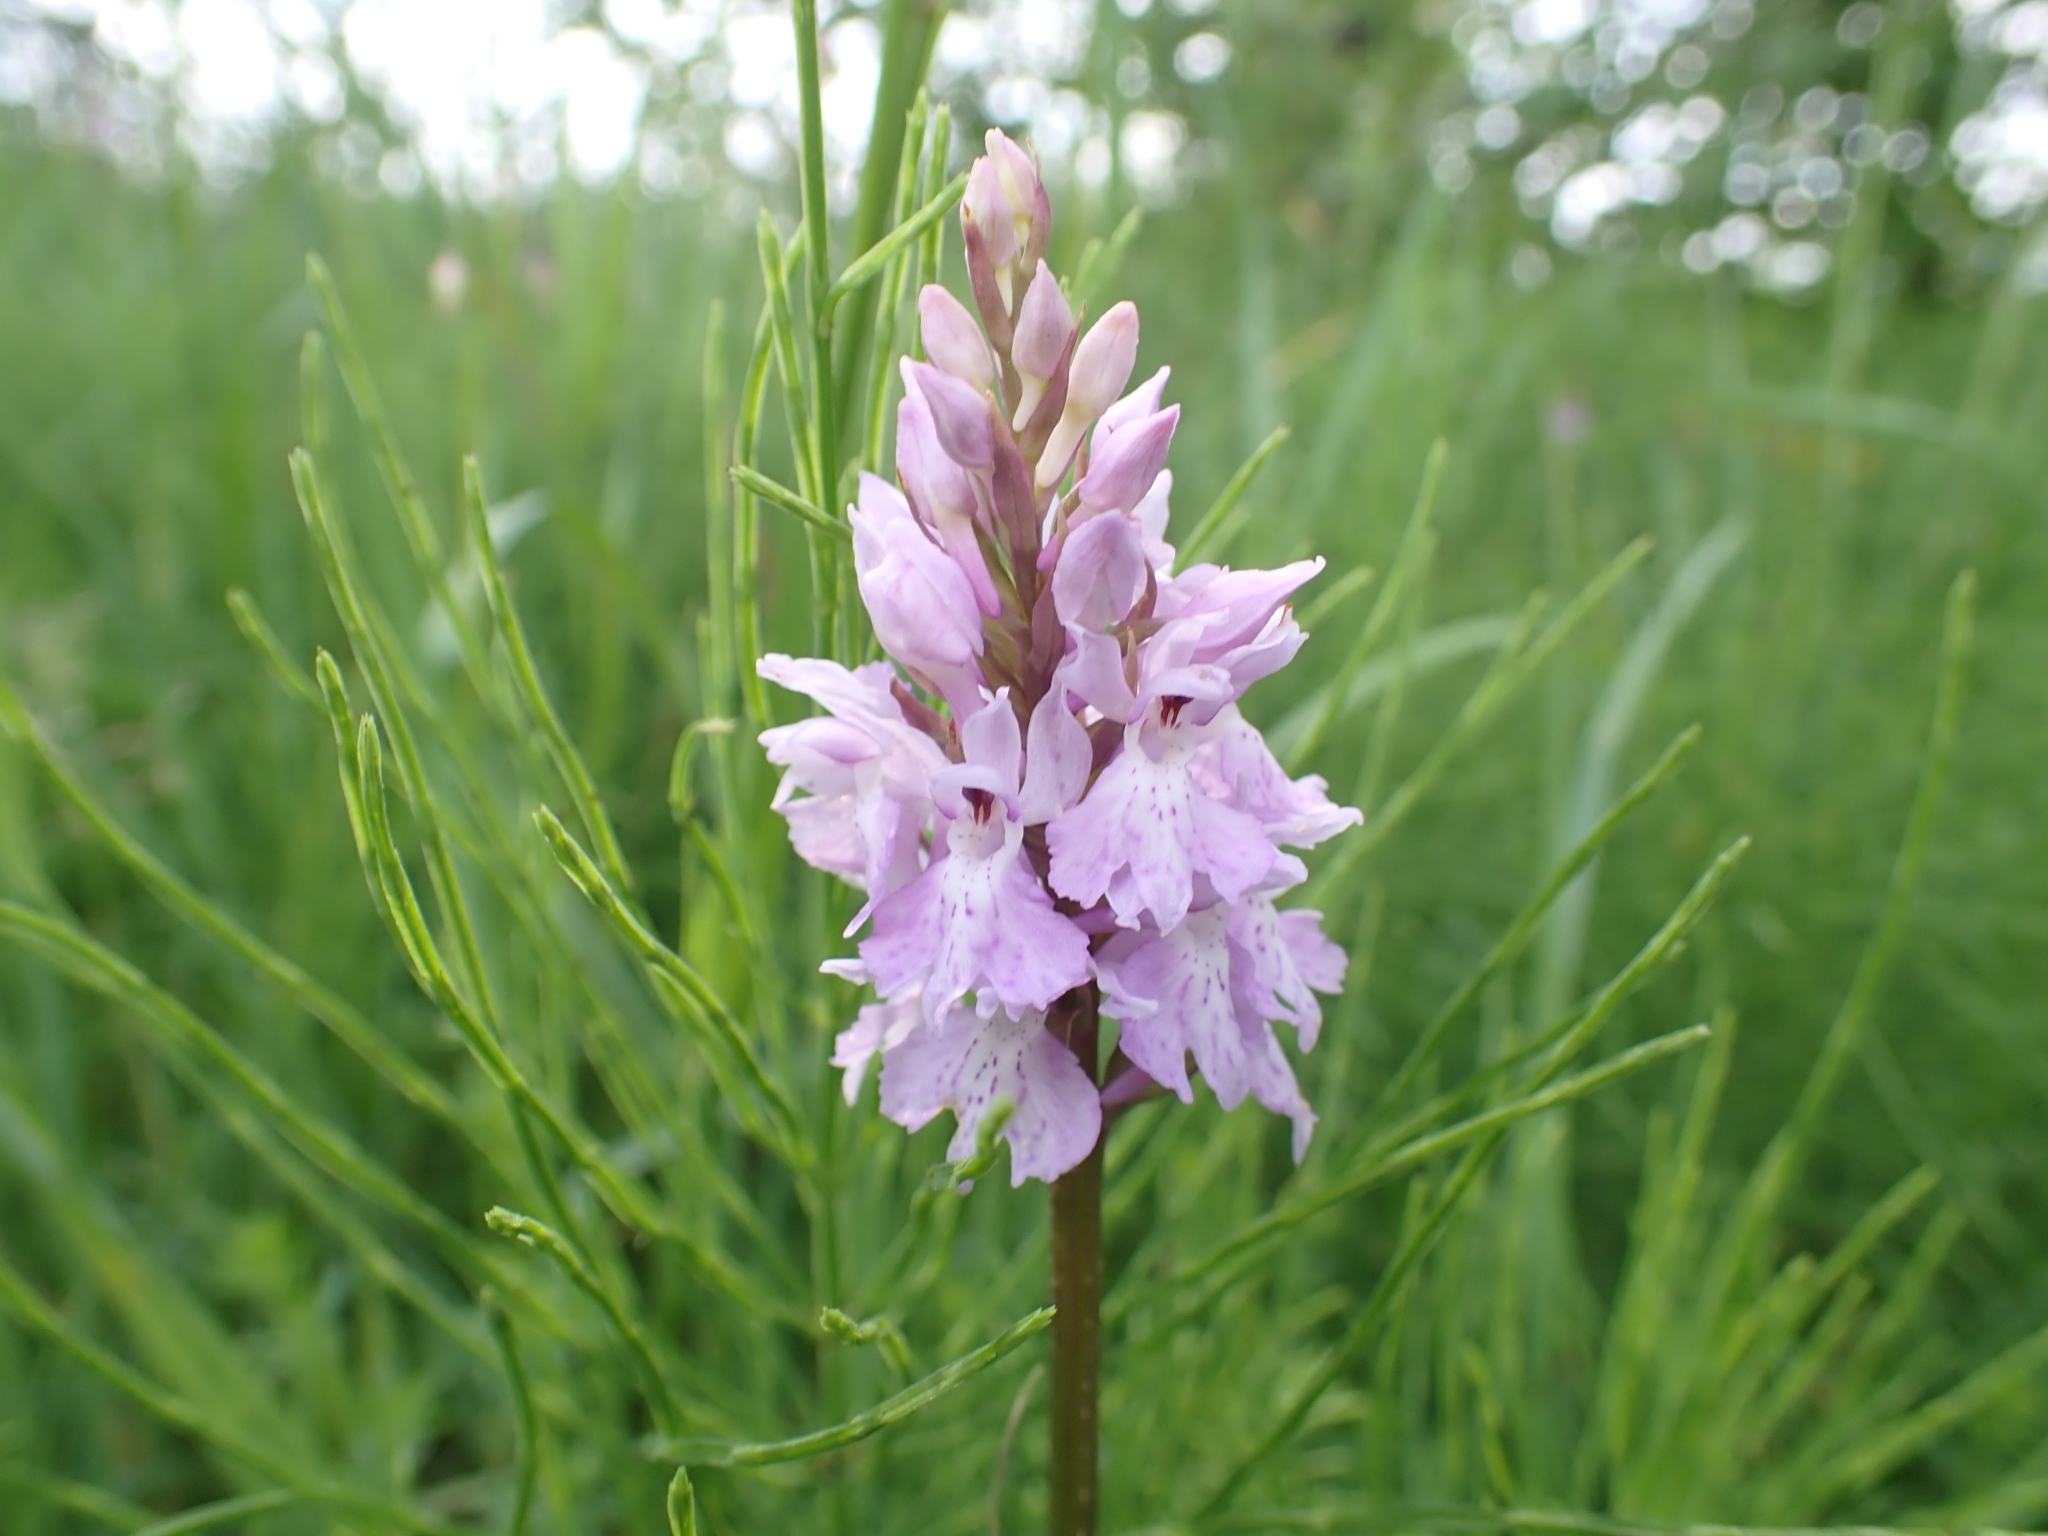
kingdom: Plantae
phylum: Tracheophyta
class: Liliopsida
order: Asparagales
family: Orchidaceae
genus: Dactylorhiza
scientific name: Dactylorhiza maculata
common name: Heath spotted-orchid
